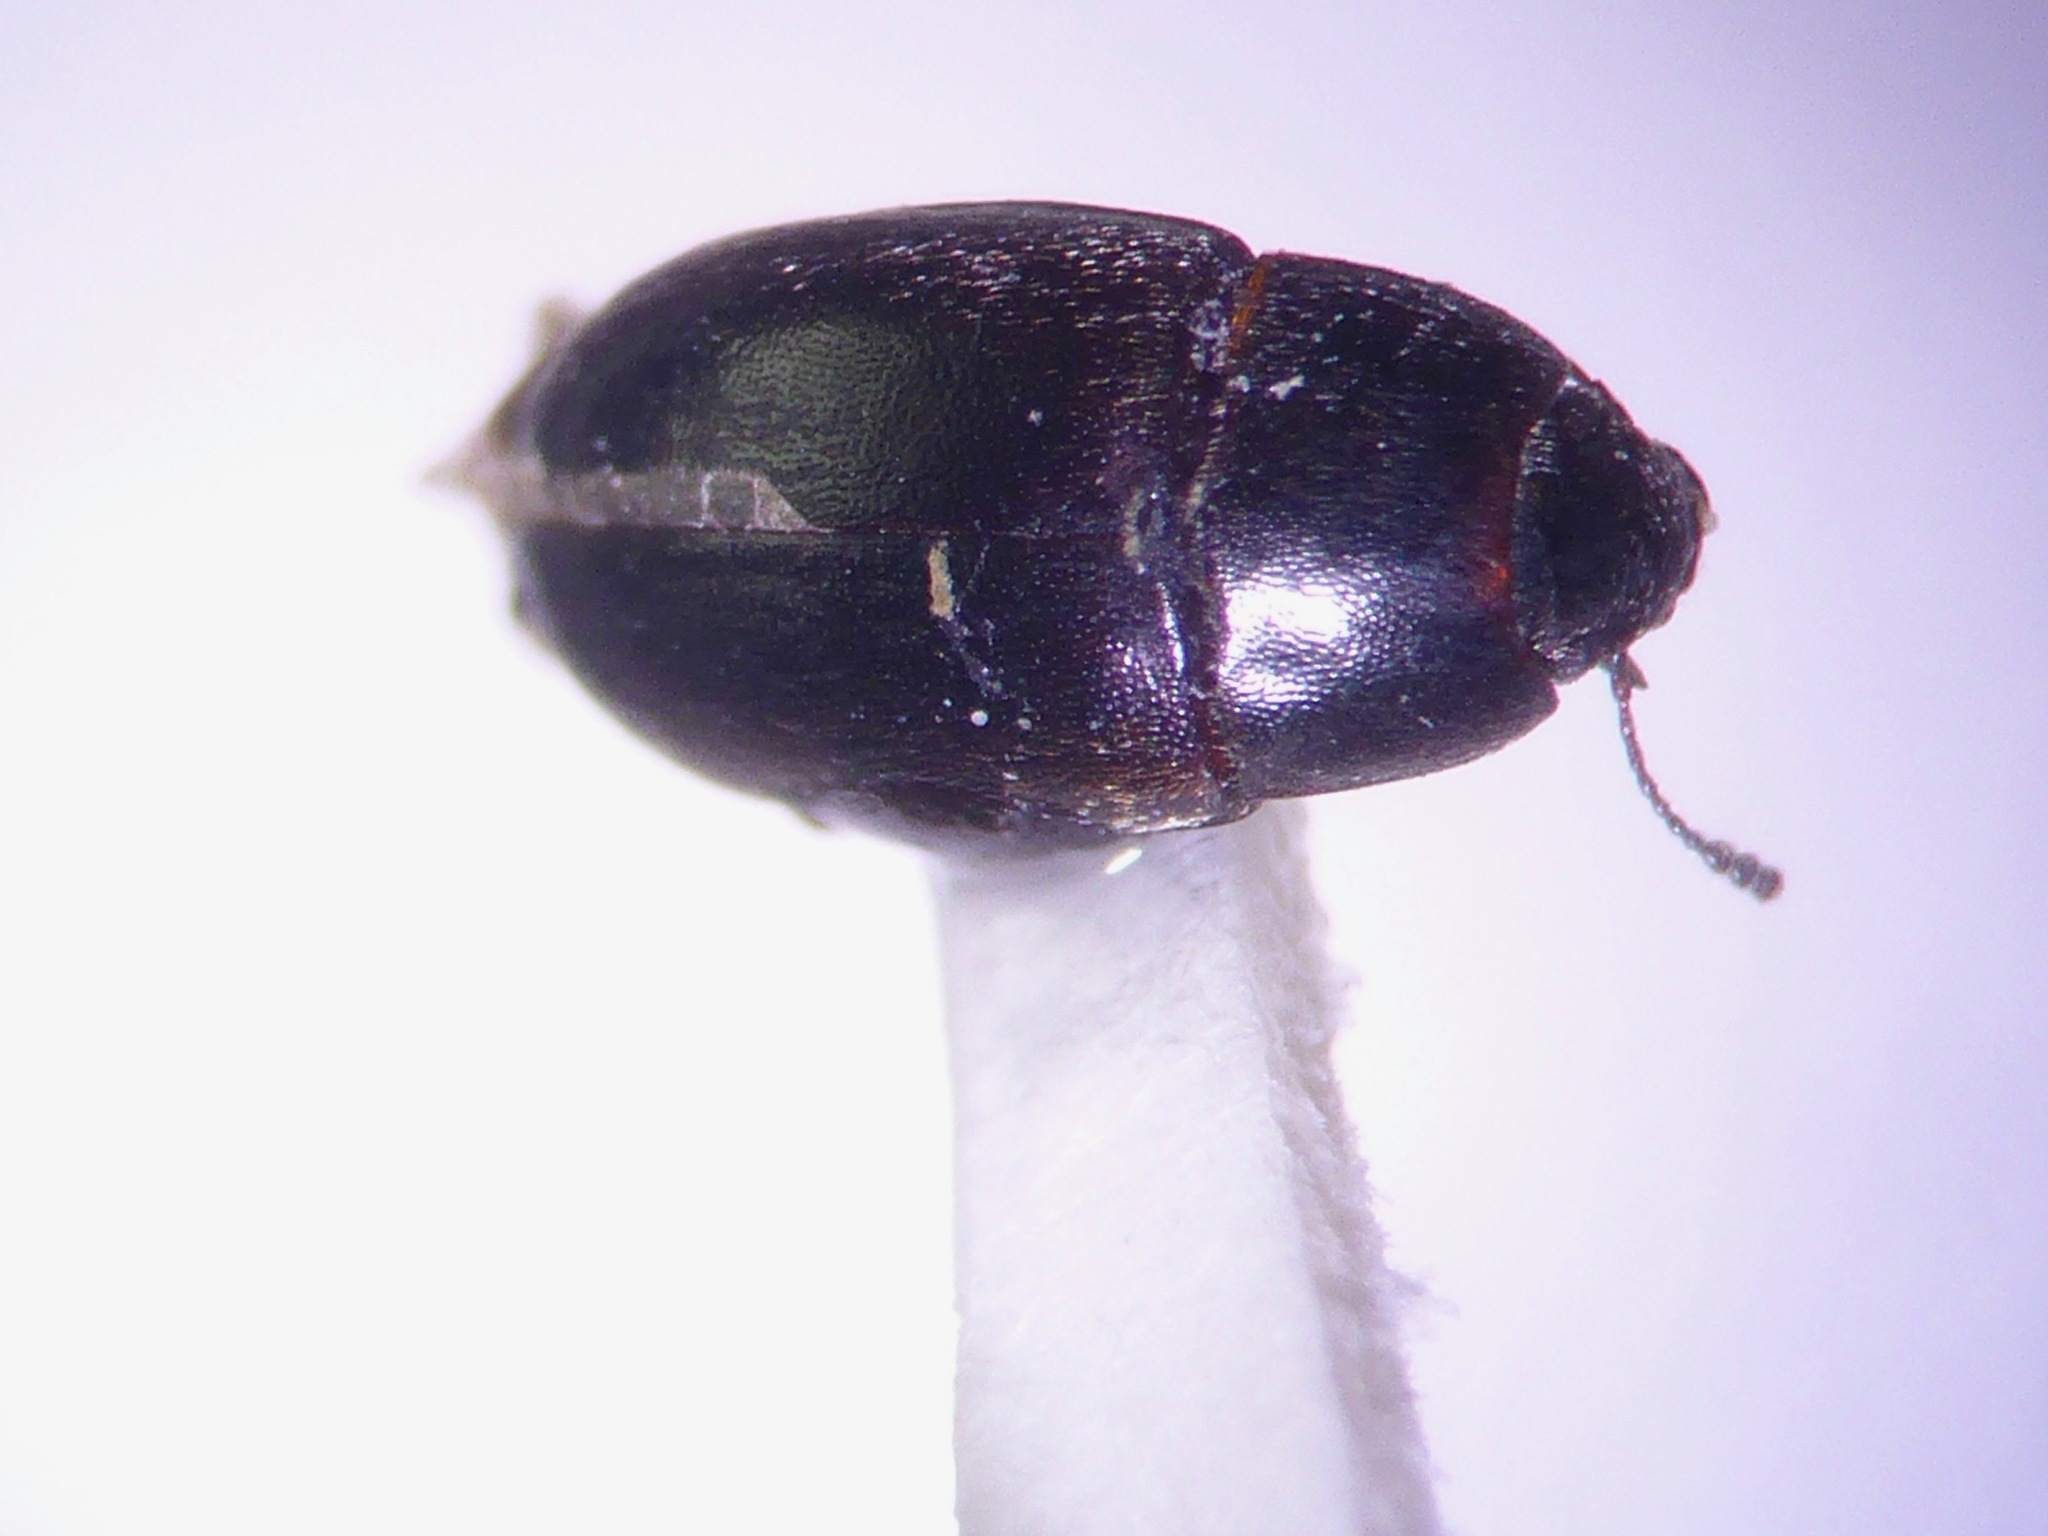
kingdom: Animalia
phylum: Arthropoda
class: Insecta
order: Coleoptera
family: Archeocrypticidae
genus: Enneboeus
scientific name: Enneboeus
